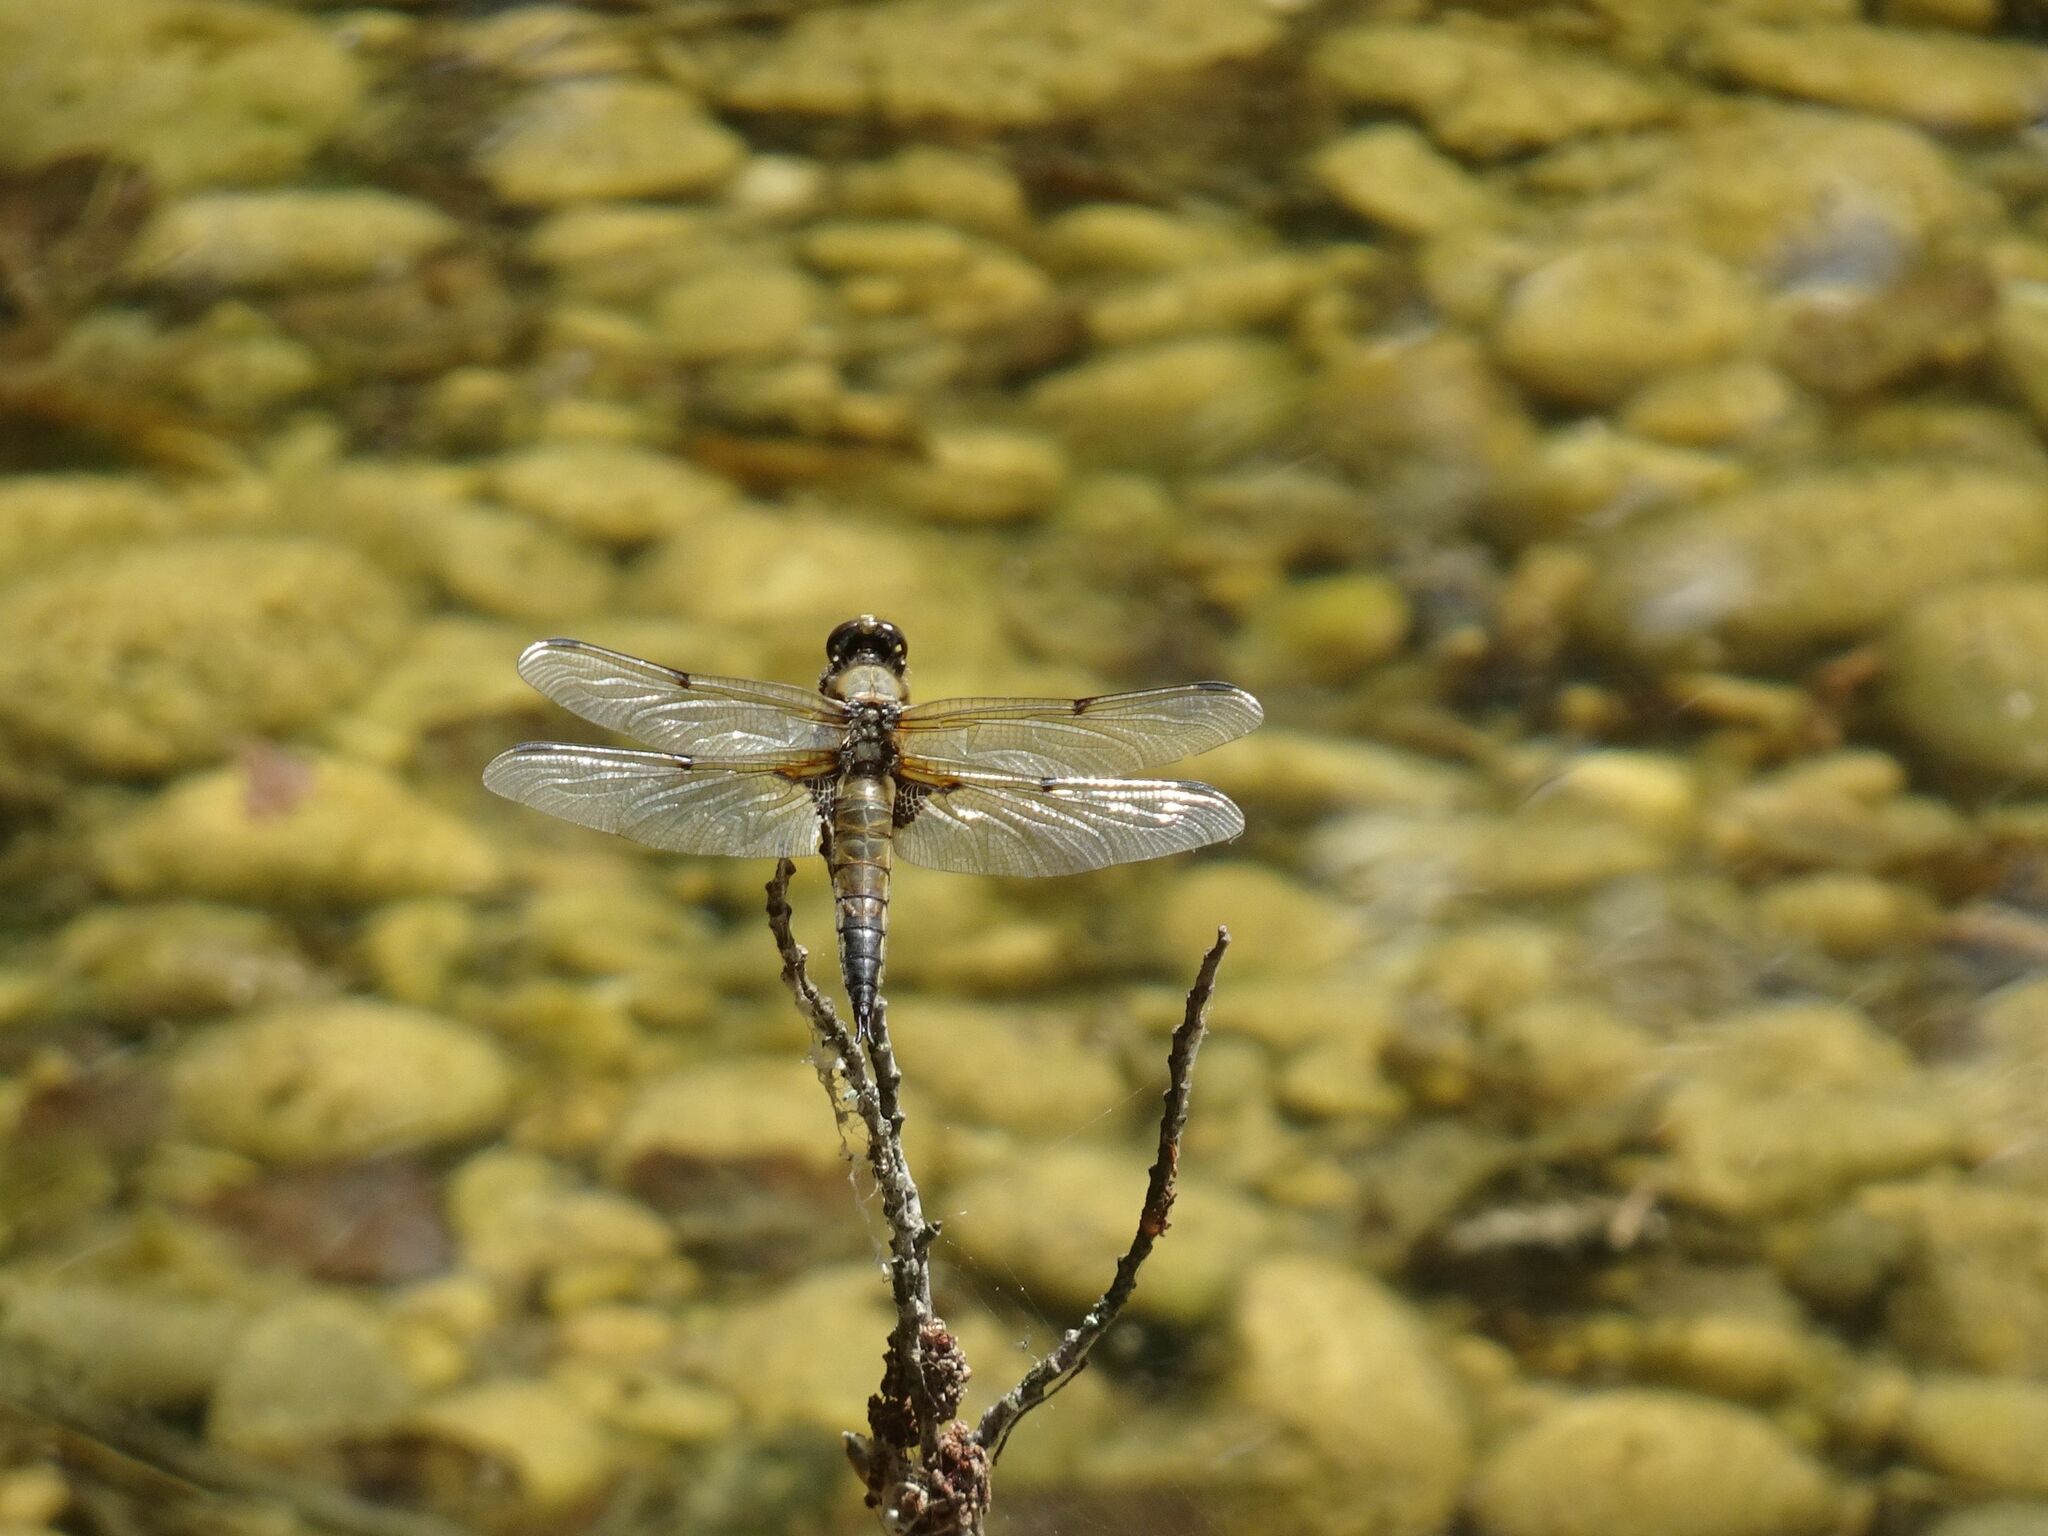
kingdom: Animalia
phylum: Arthropoda
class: Insecta
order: Odonata
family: Libellulidae
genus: Libellula
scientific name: Libellula quadrimaculata
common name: Four-spotted chaser
